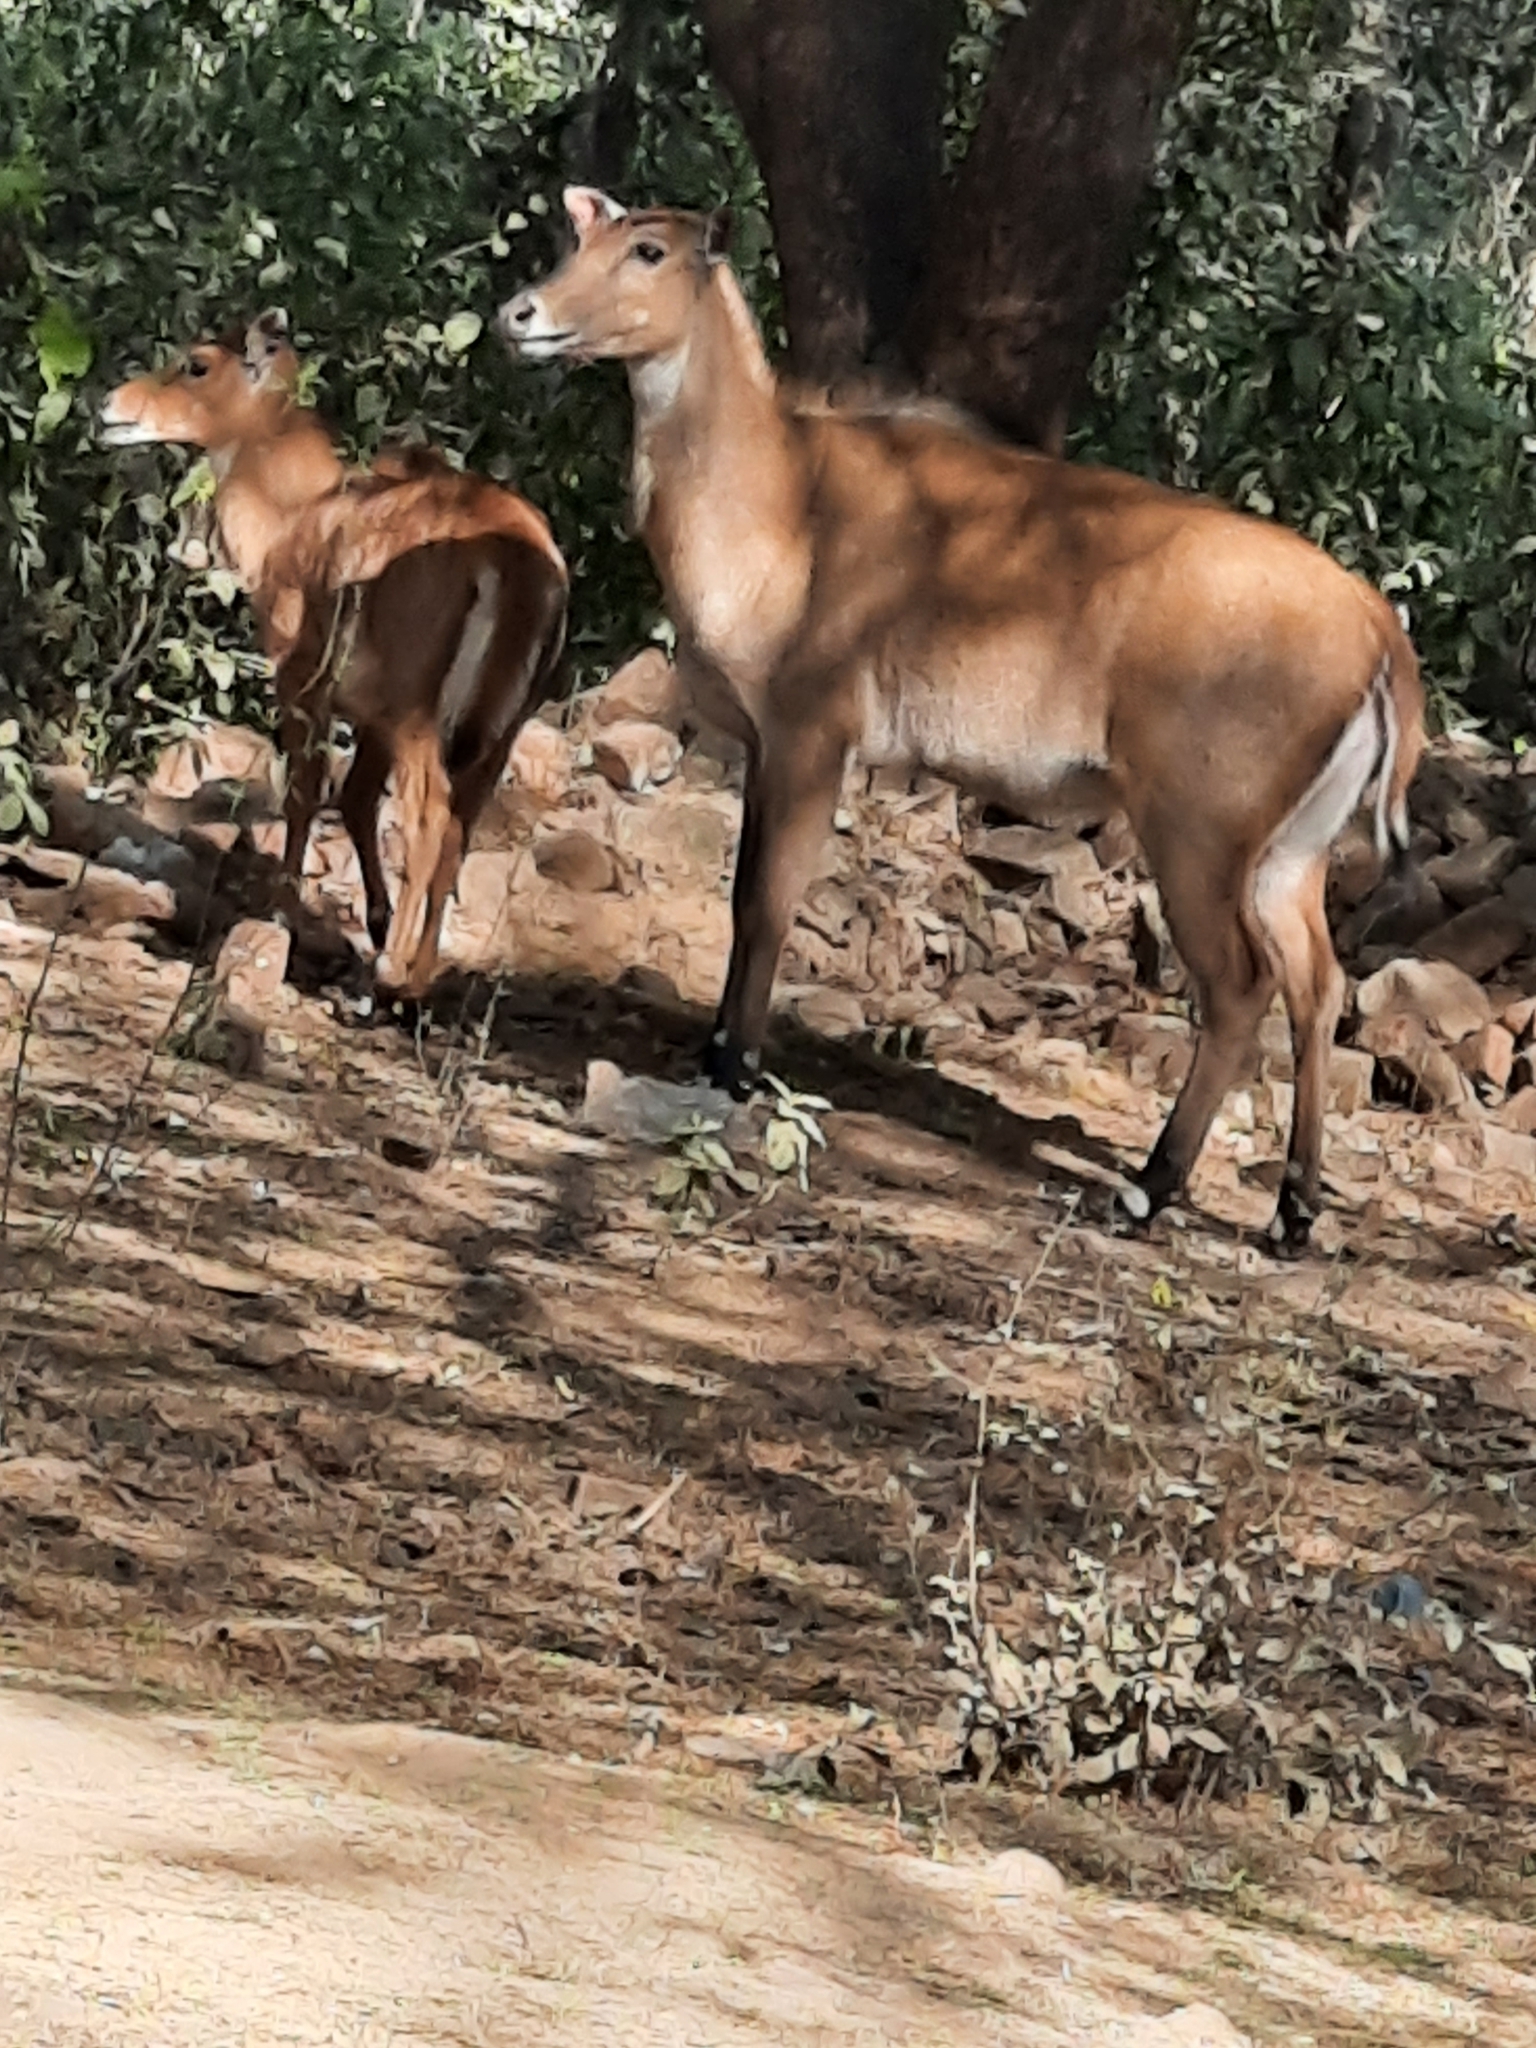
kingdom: Animalia
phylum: Chordata
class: Mammalia
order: Artiodactyla
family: Bovidae
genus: Boselaphus
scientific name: Boselaphus tragocamelus
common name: Nilgai
